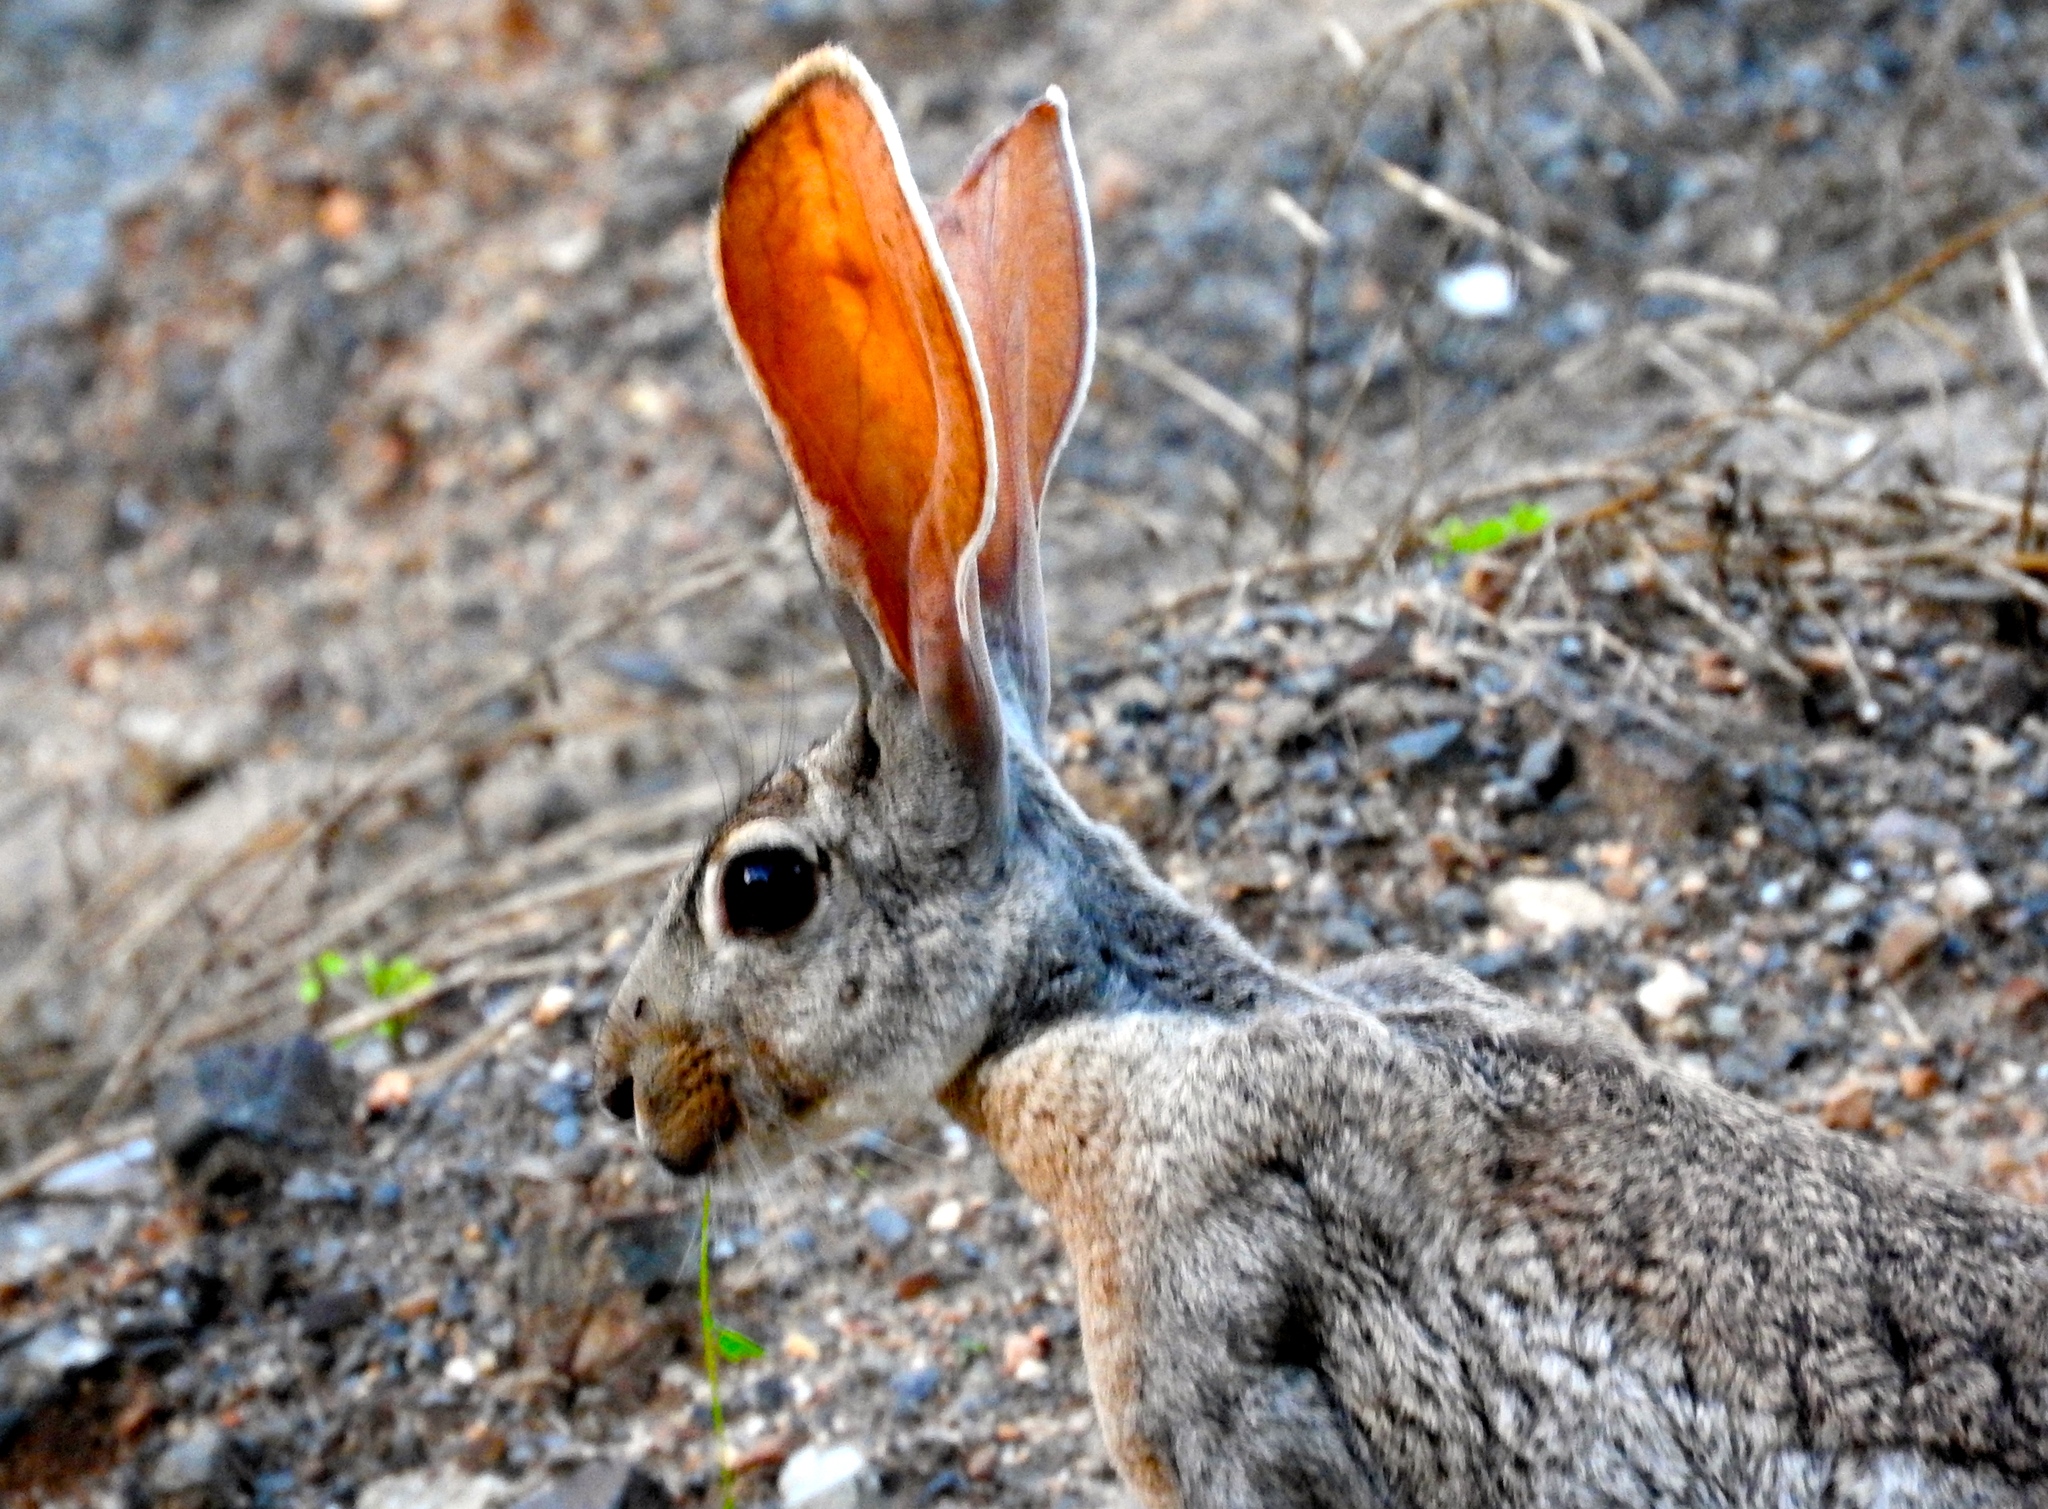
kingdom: Animalia
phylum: Chordata
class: Mammalia
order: Lagomorpha
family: Leporidae
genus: Lepus
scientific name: Lepus alleni
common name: Antelope jackrabbit
